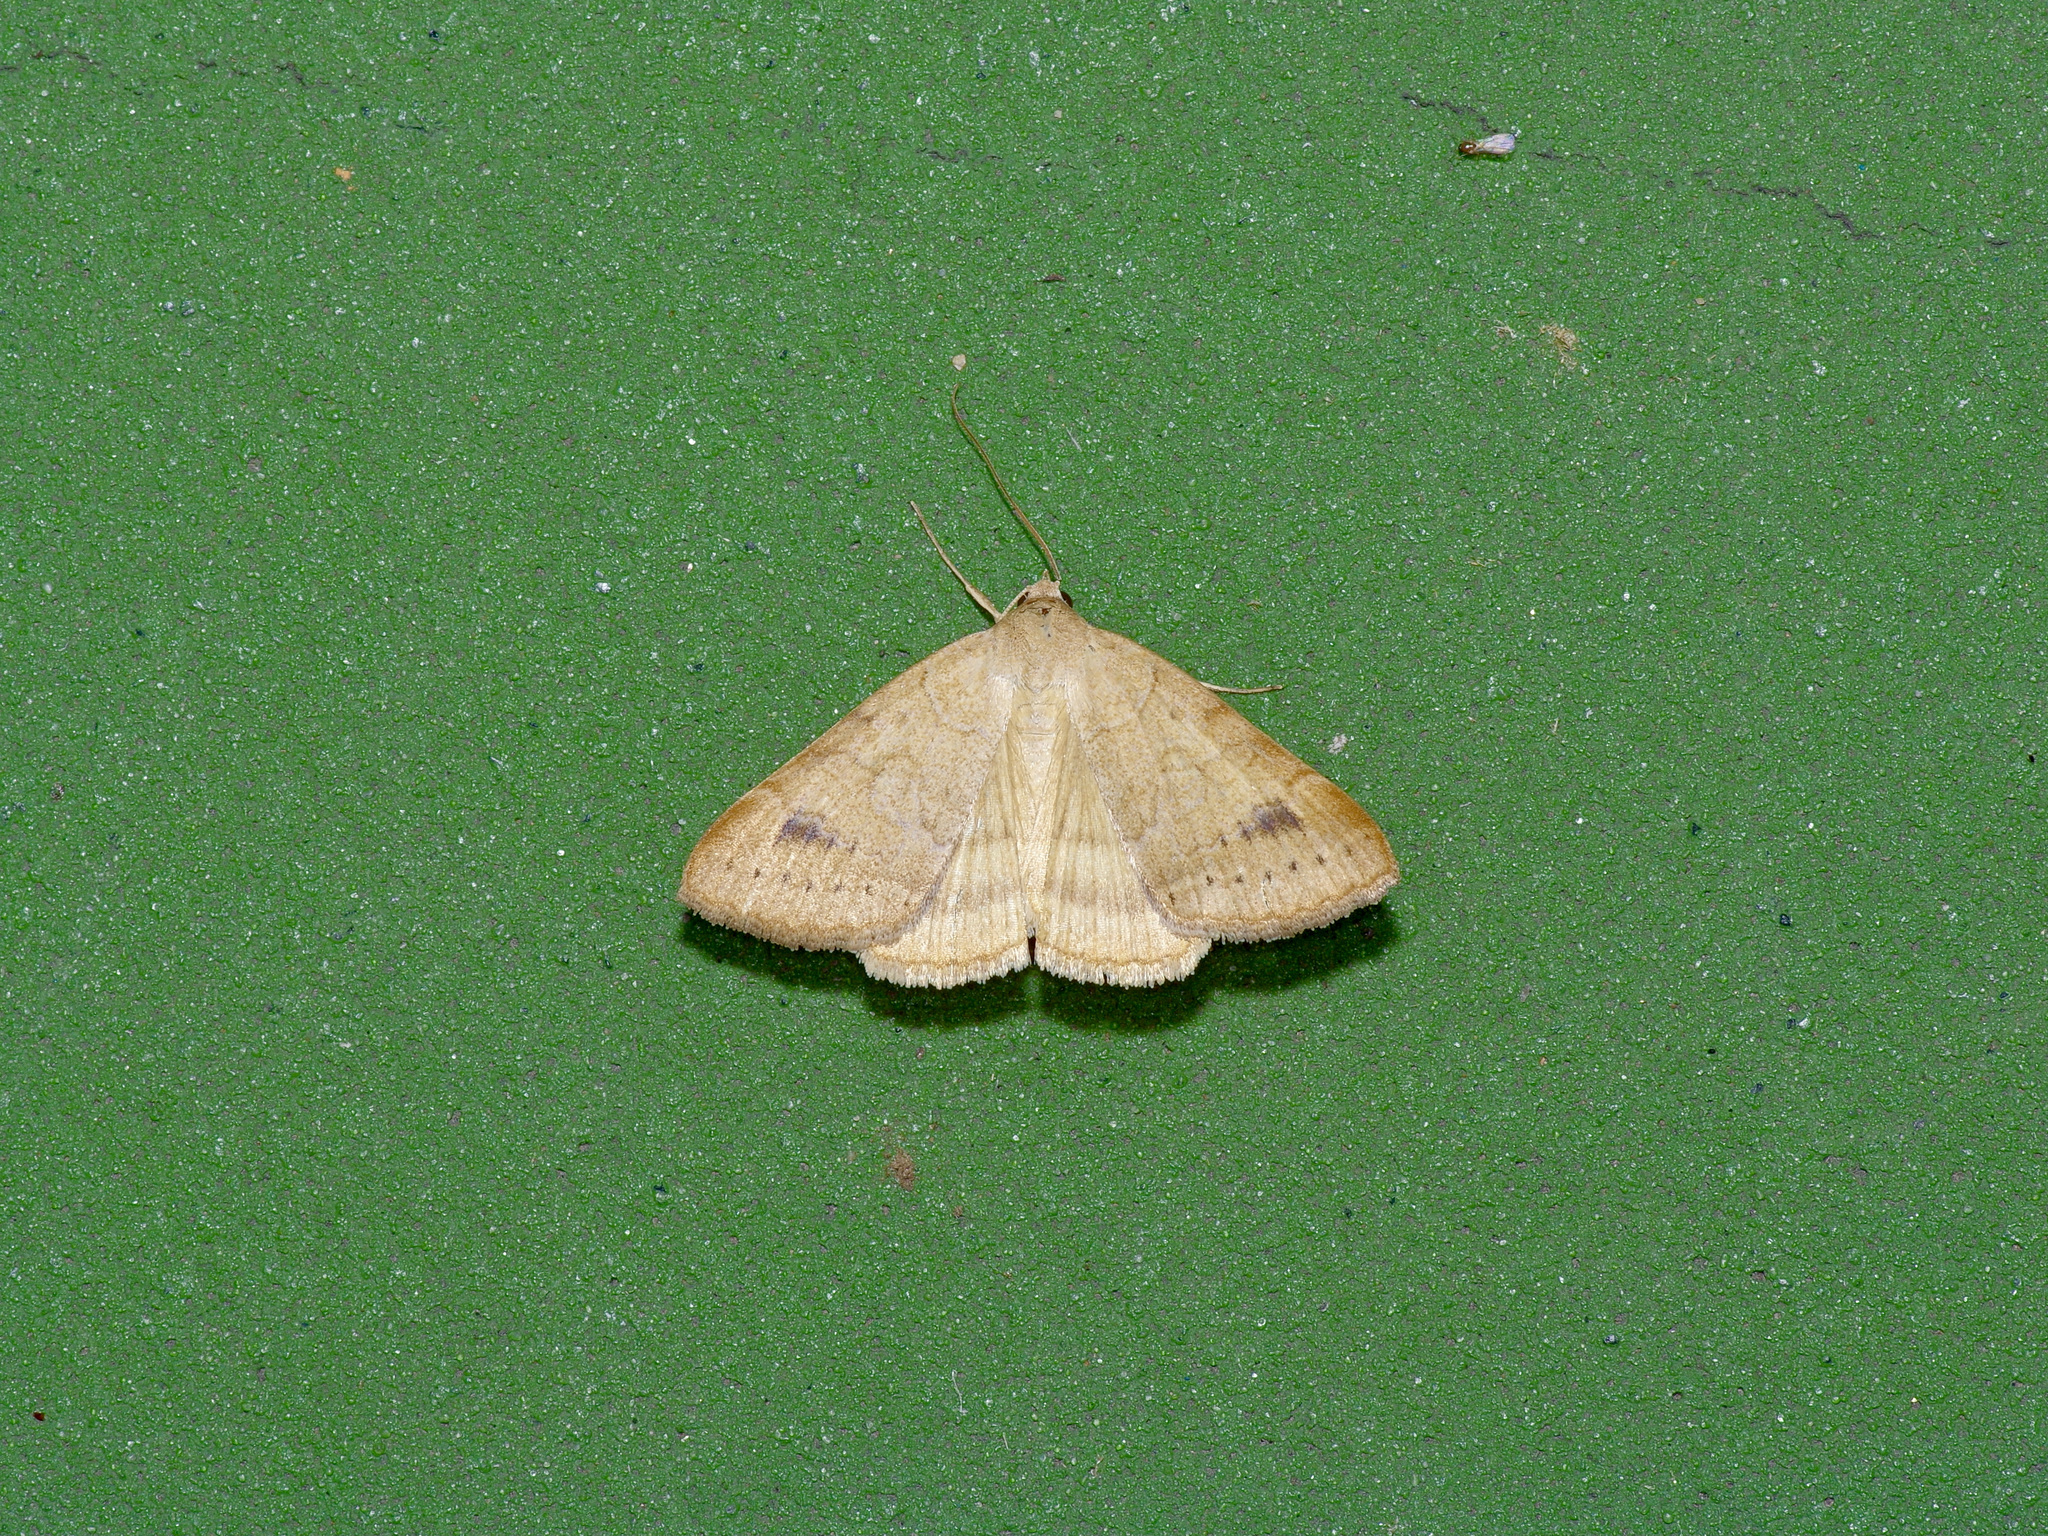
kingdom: Animalia
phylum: Arthropoda
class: Insecta
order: Lepidoptera
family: Erebidae
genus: Caenurgia
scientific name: Caenurgia chloropha
